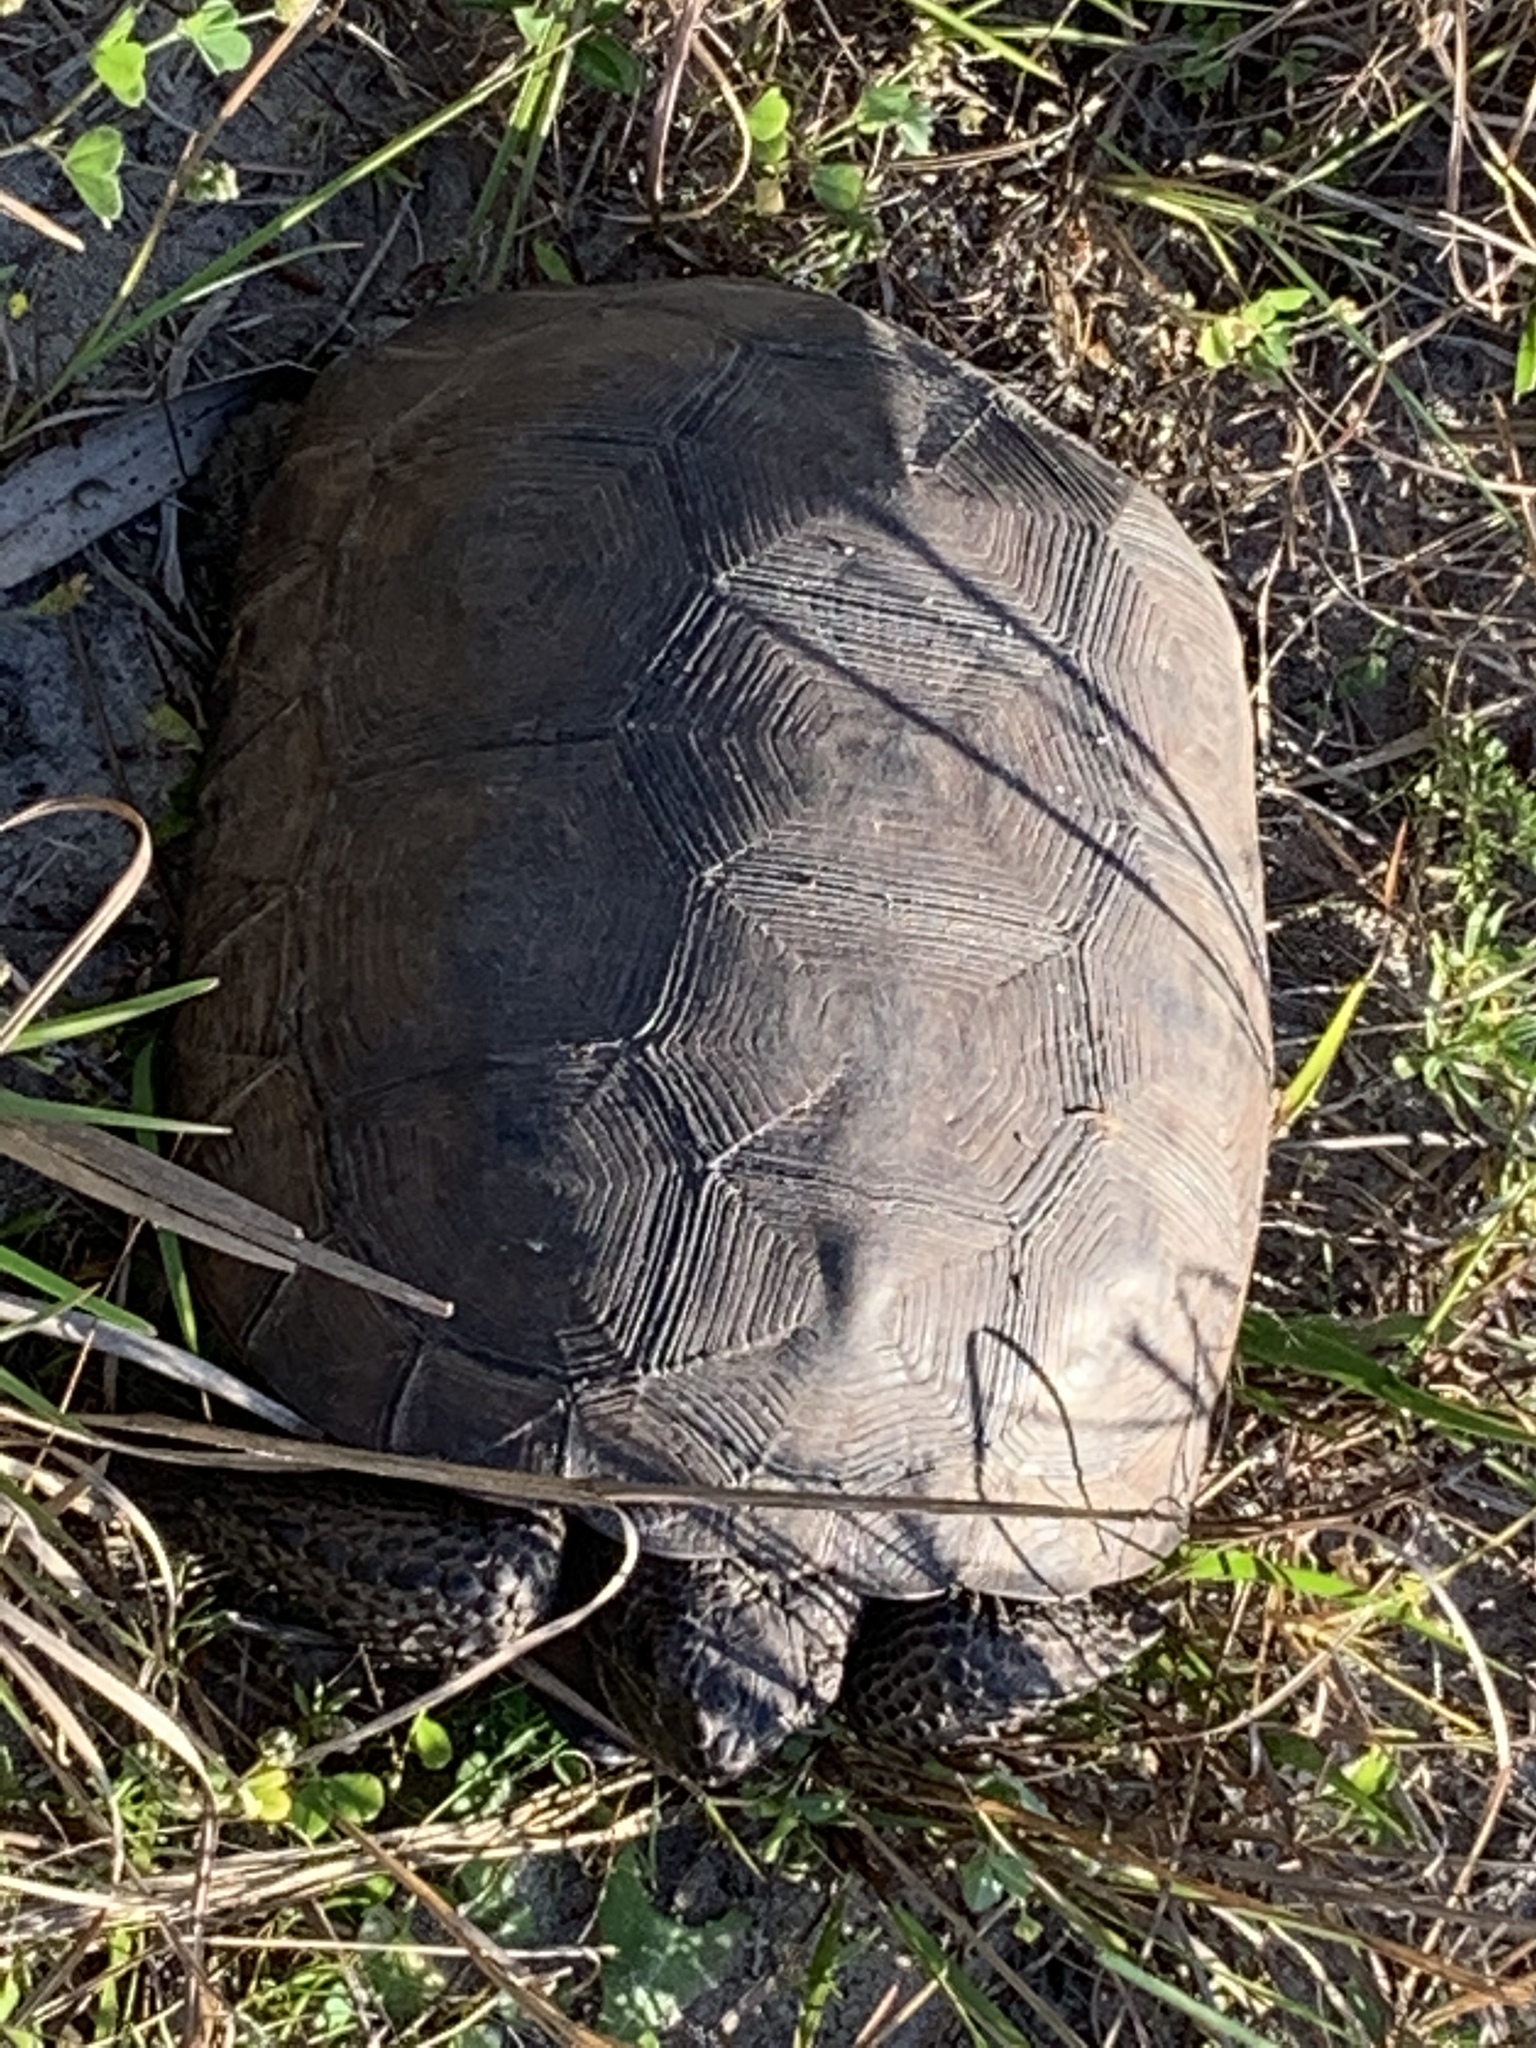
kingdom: Animalia
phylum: Chordata
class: Testudines
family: Testudinidae
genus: Gopherus
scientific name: Gopherus polyphemus
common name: Florida gopher tortoise
